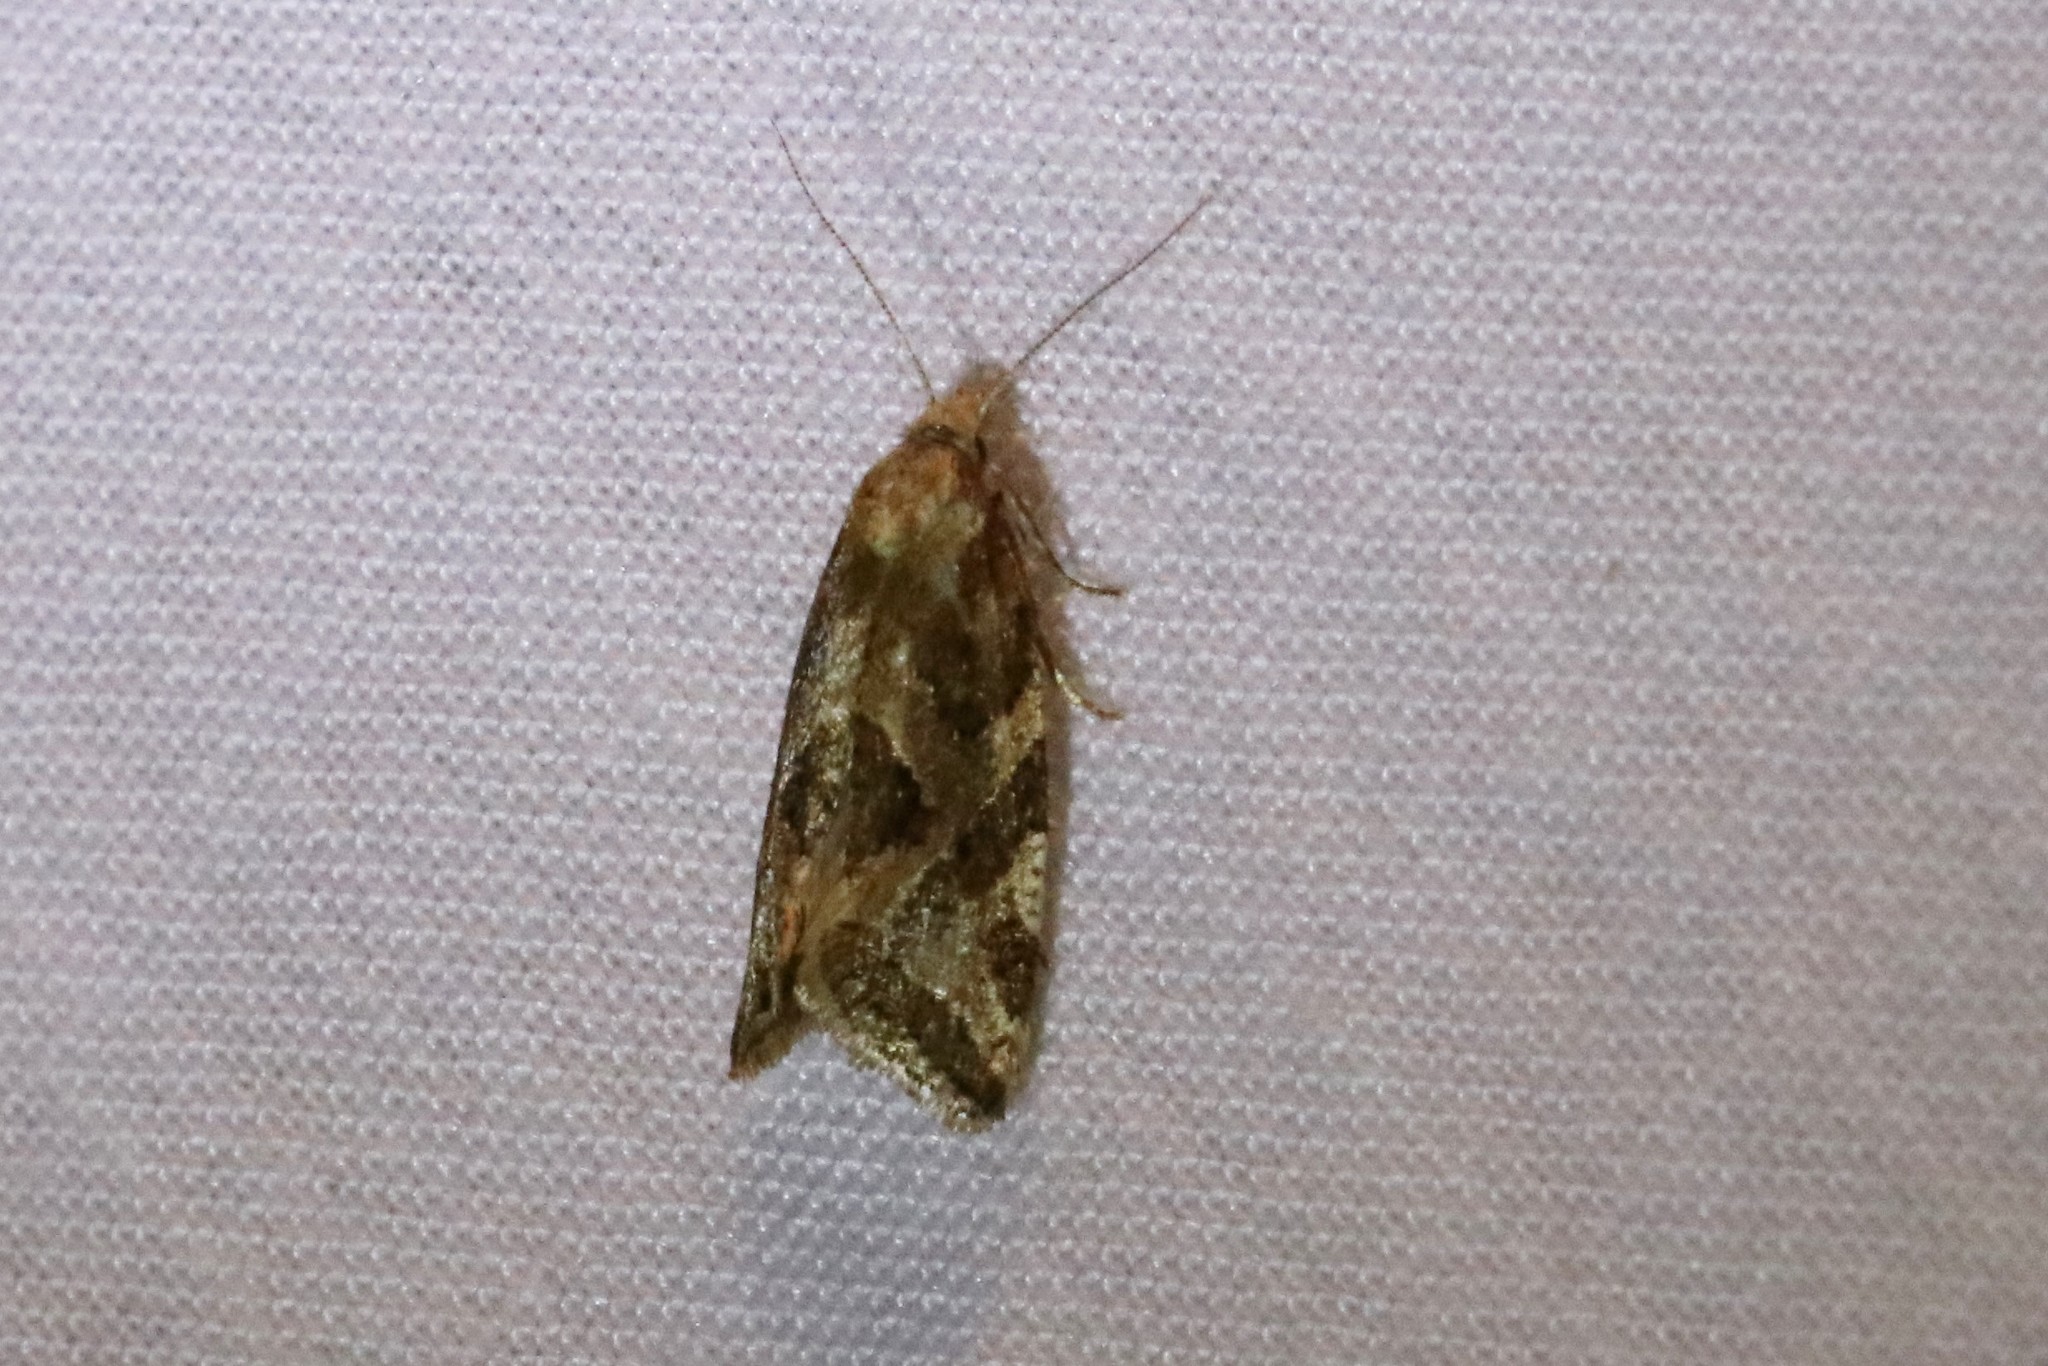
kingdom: Animalia
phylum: Arthropoda
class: Insecta
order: Lepidoptera
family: Tortricidae
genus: Aethes
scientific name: Aethes angulatana
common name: Angular aethes moth
